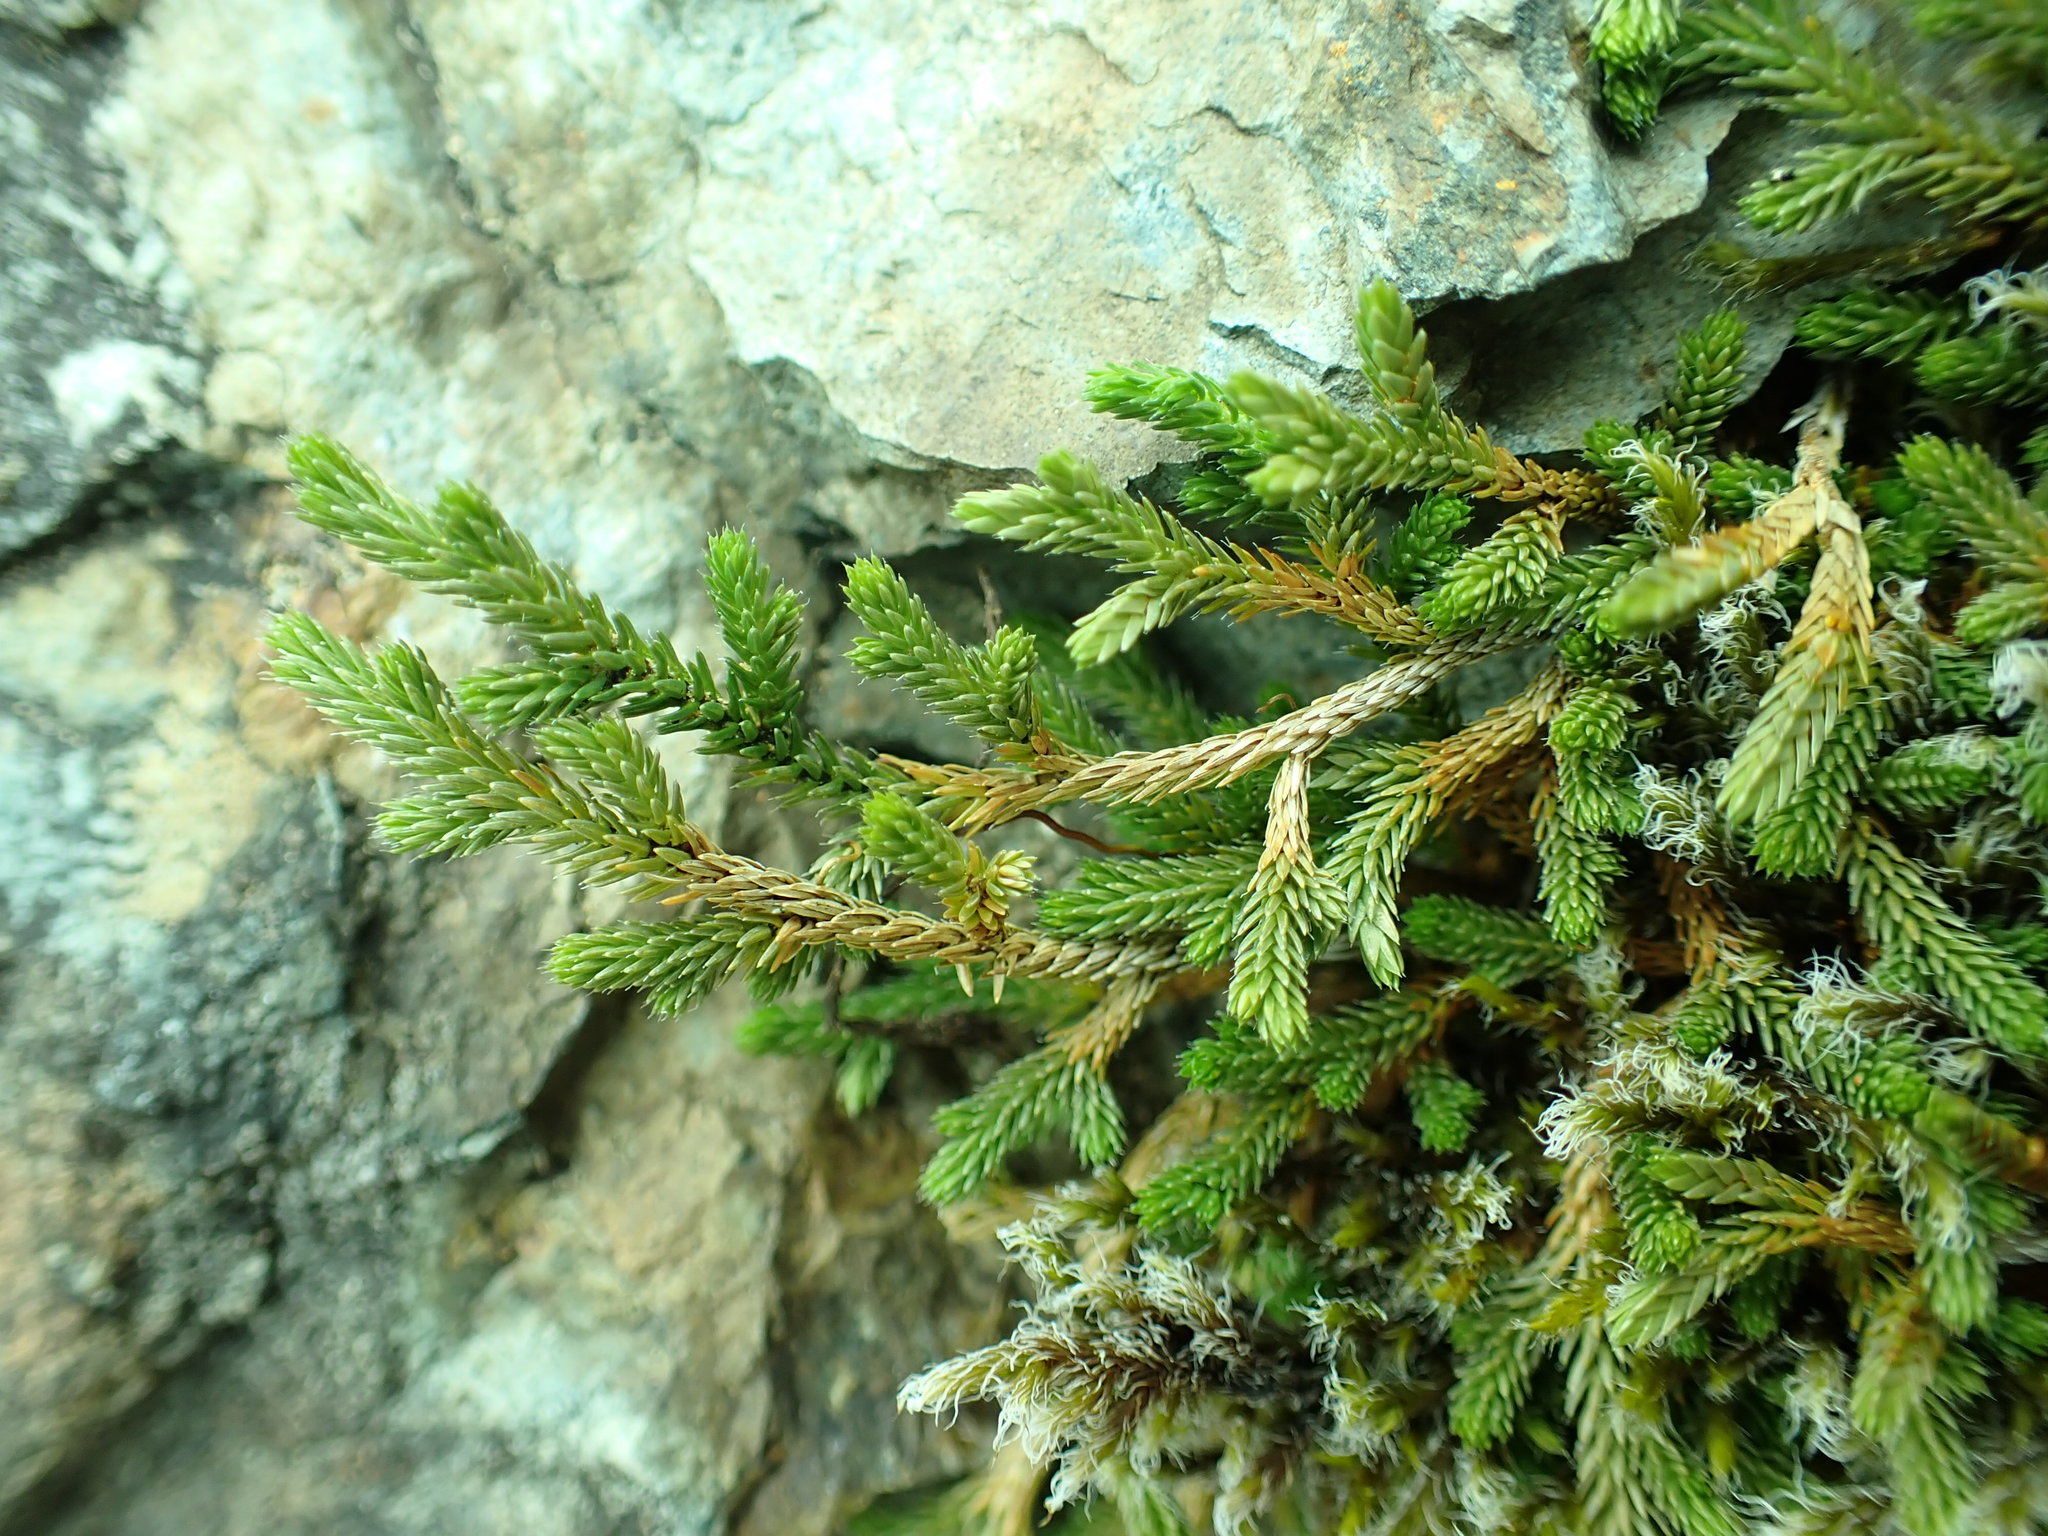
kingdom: Plantae
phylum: Tracheophyta
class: Lycopodiopsida
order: Selaginellales
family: Selaginellaceae
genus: Selaginella
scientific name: Selaginella wallacei
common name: Wallace's selaginella
